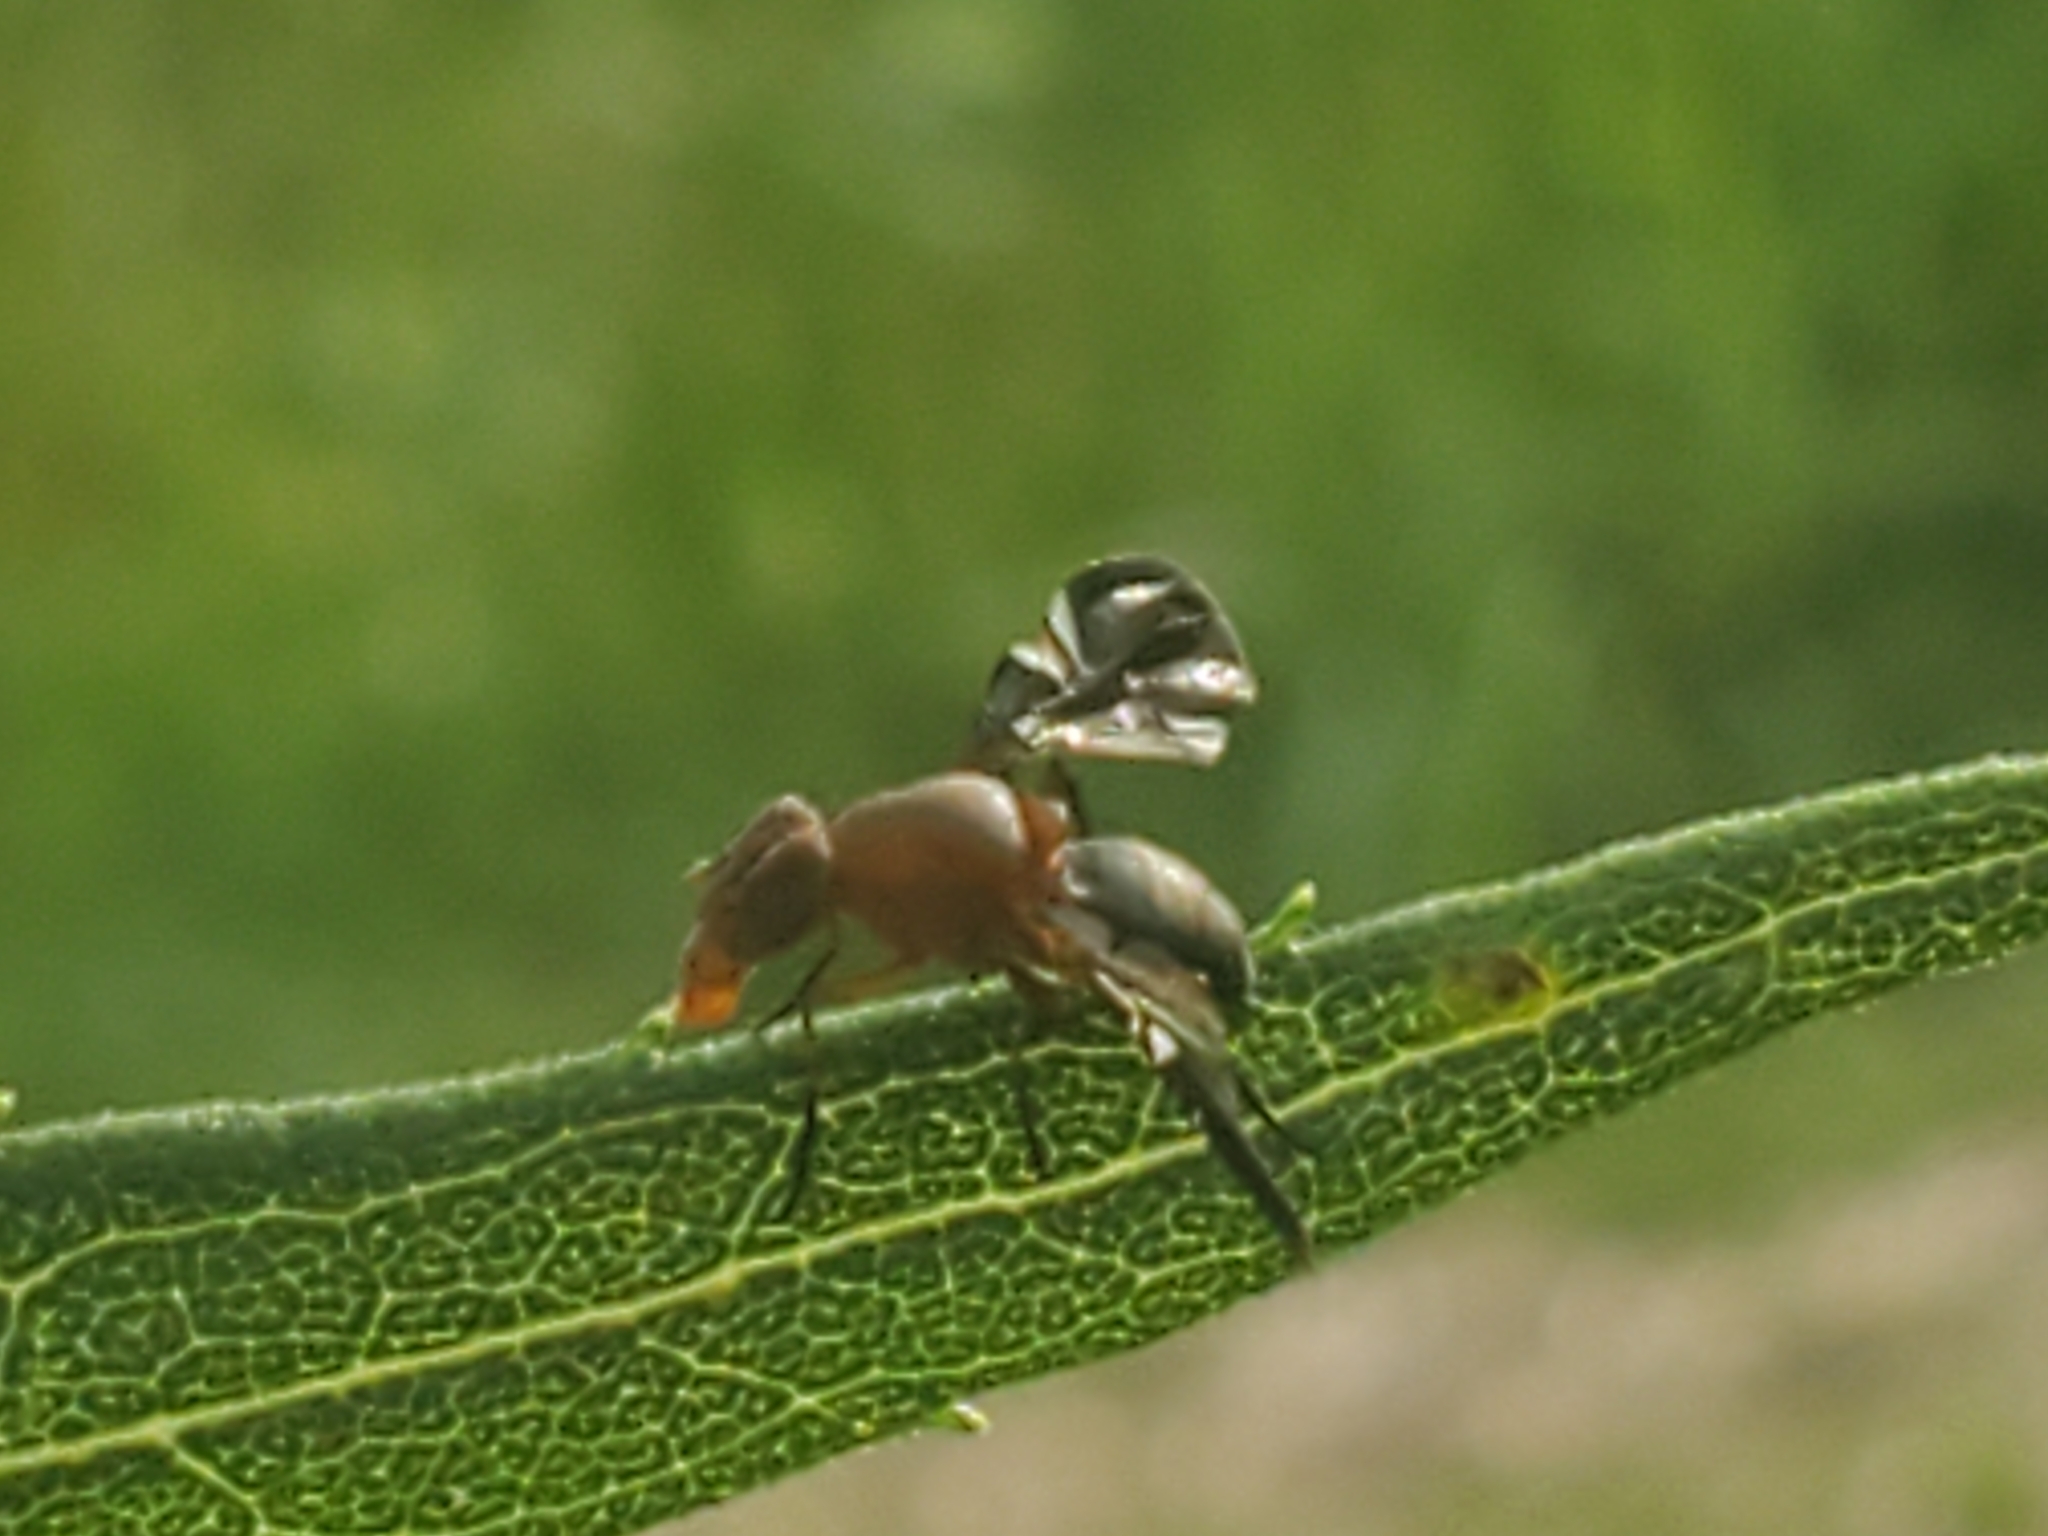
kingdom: Animalia
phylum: Arthropoda
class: Insecta
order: Diptera
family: Ulidiidae
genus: Delphinia
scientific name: Delphinia picta
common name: Common picture-winged fly
